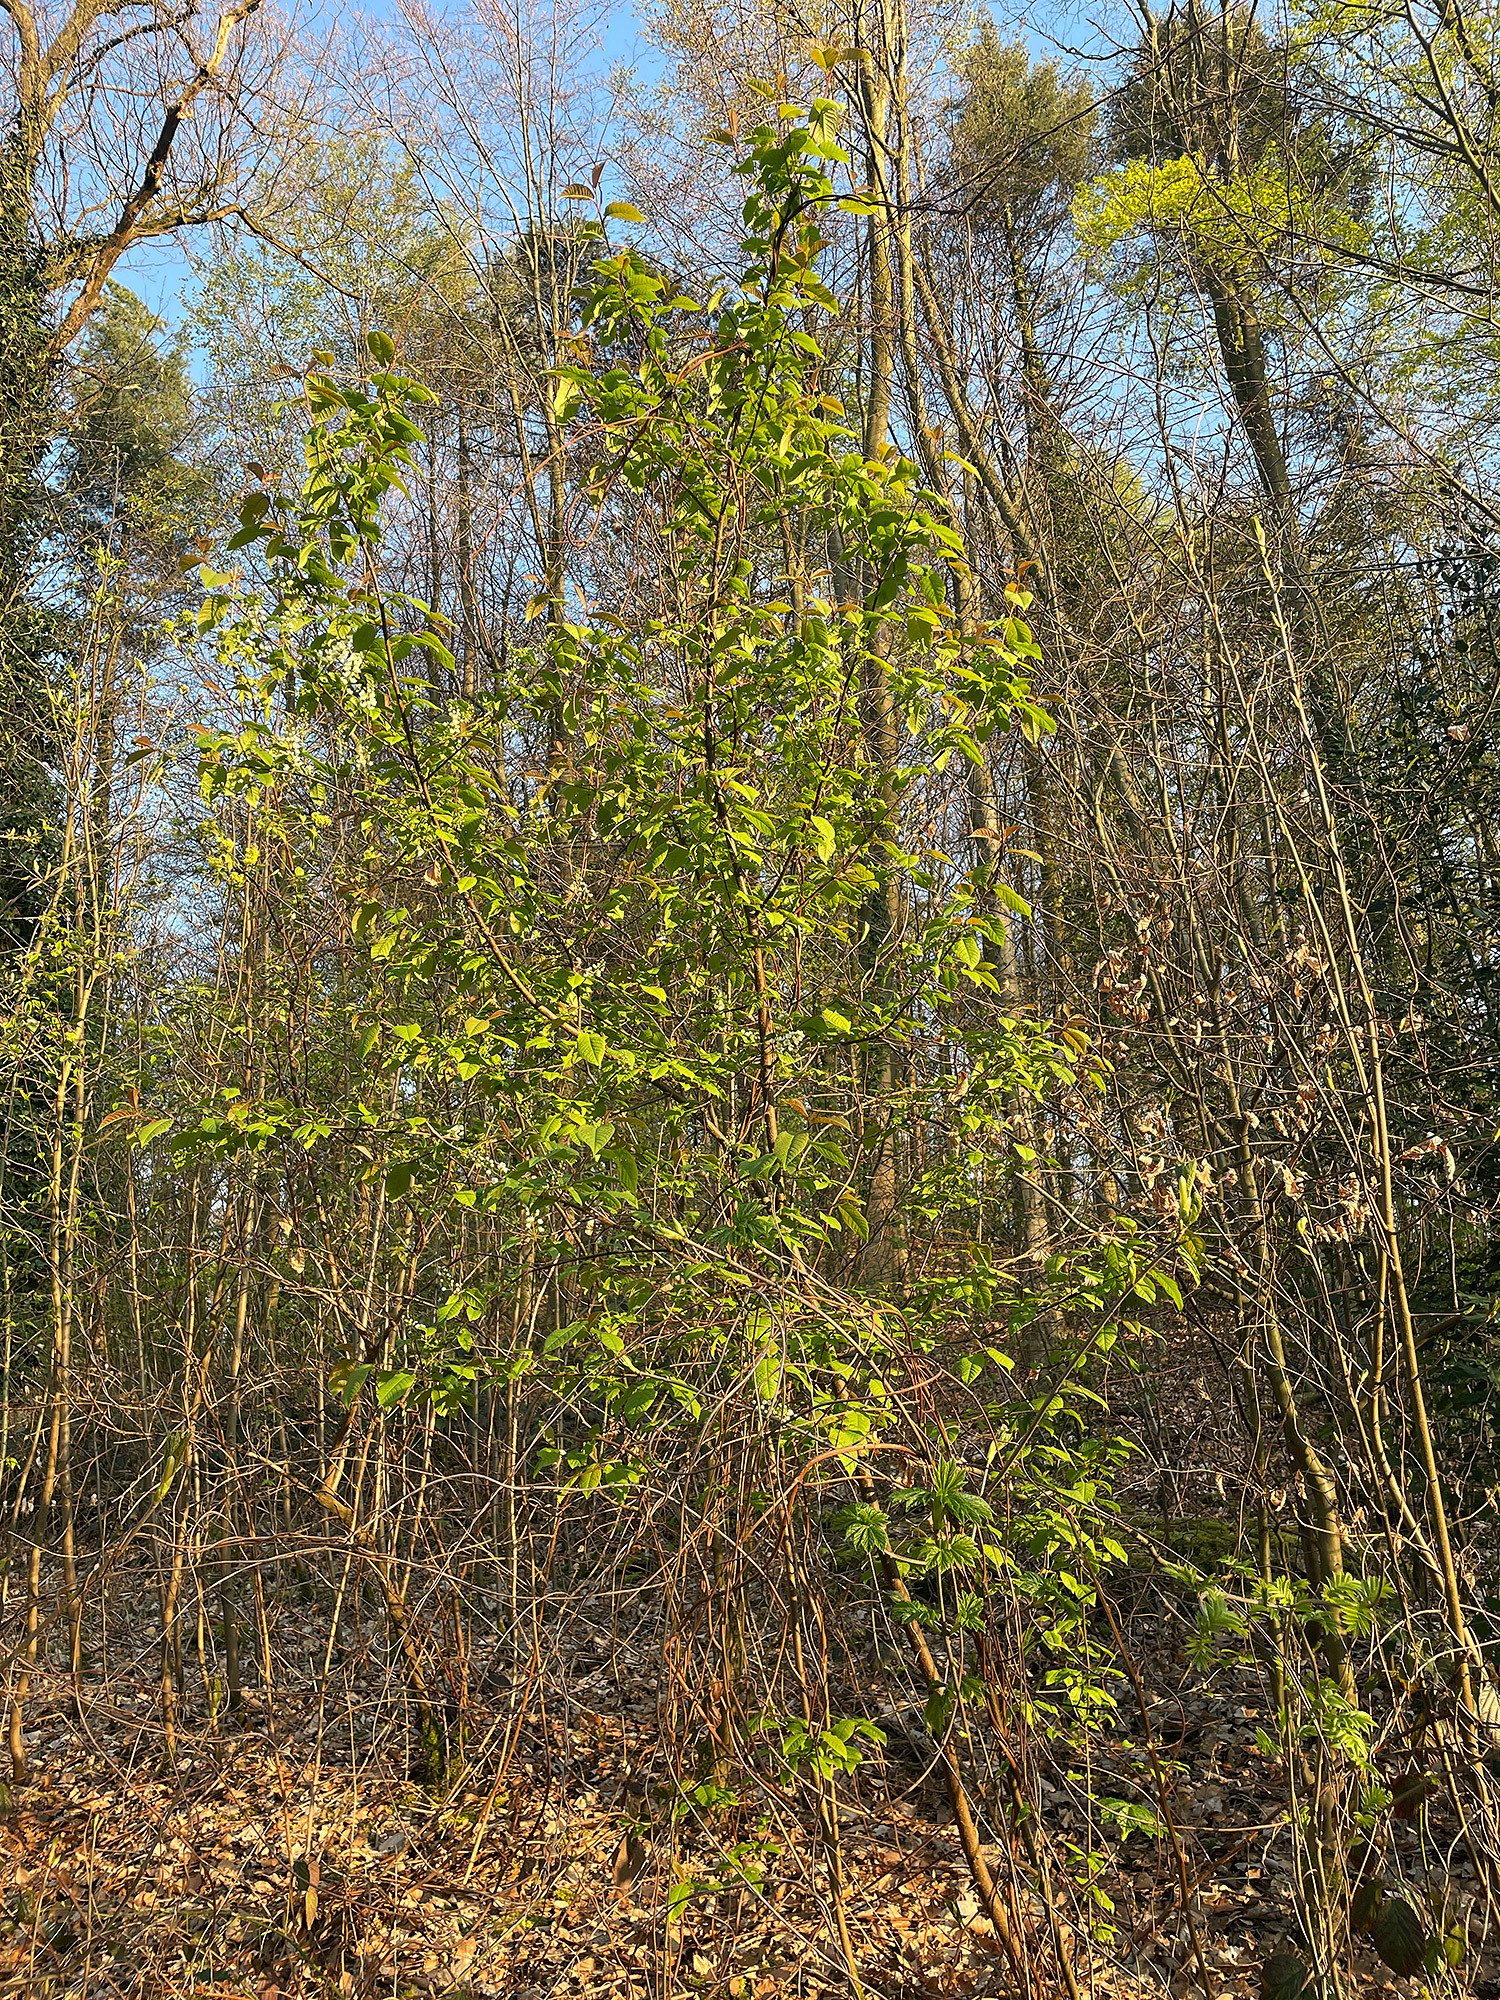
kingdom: Plantae
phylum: Tracheophyta
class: Magnoliopsida
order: Rosales
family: Rosaceae
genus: Prunus
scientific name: Prunus padus
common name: Bird cherry
